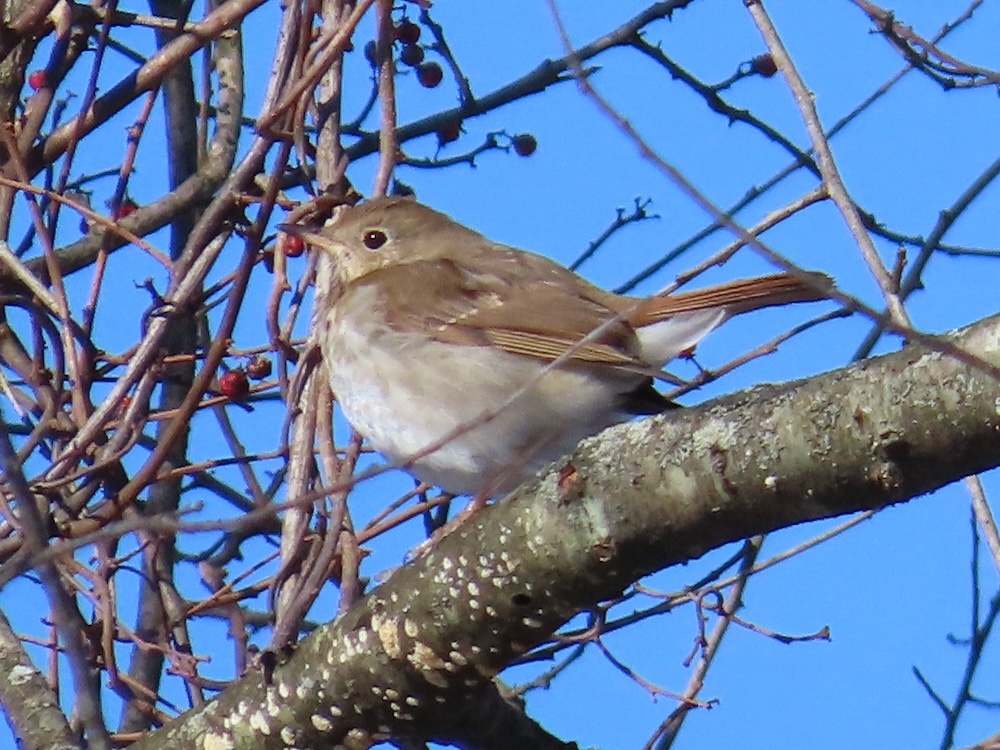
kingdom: Animalia
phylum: Chordata
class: Aves
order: Passeriformes
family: Turdidae
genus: Catharus
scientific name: Catharus guttatus
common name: Hermit thrush
